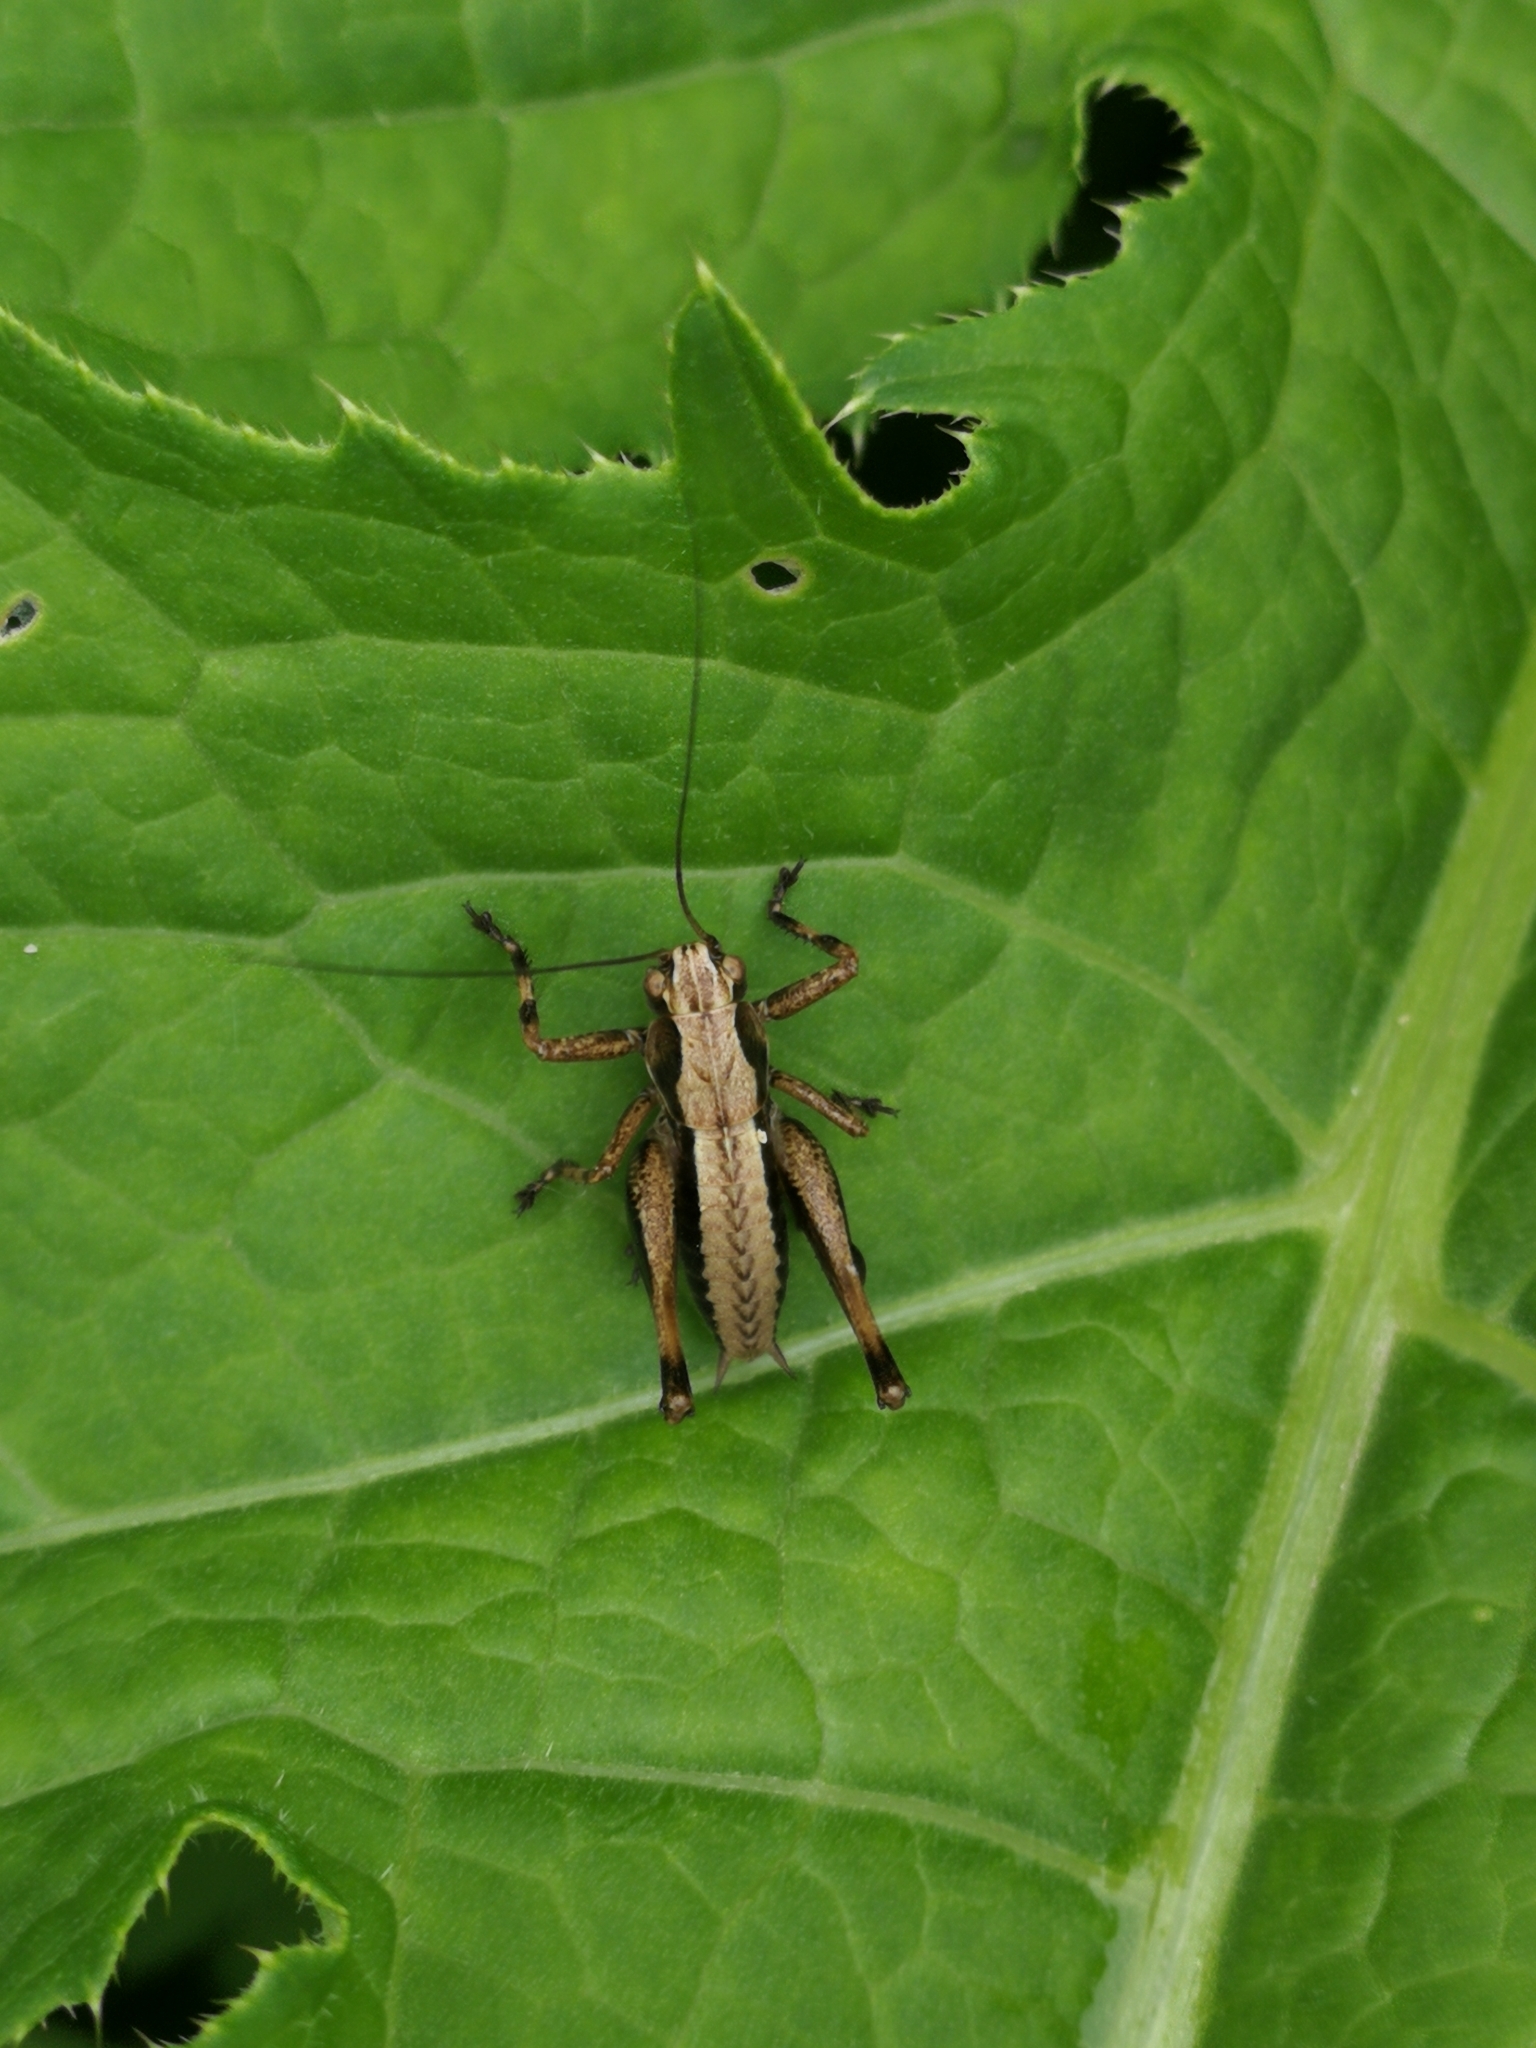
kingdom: Animalia
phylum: Arthropoda
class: Insecta
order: Orthoptera
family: Tettigoniidae
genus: Pholidoptera
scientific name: Pholidoptera griseoaptera
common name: Dark bush-cricket
